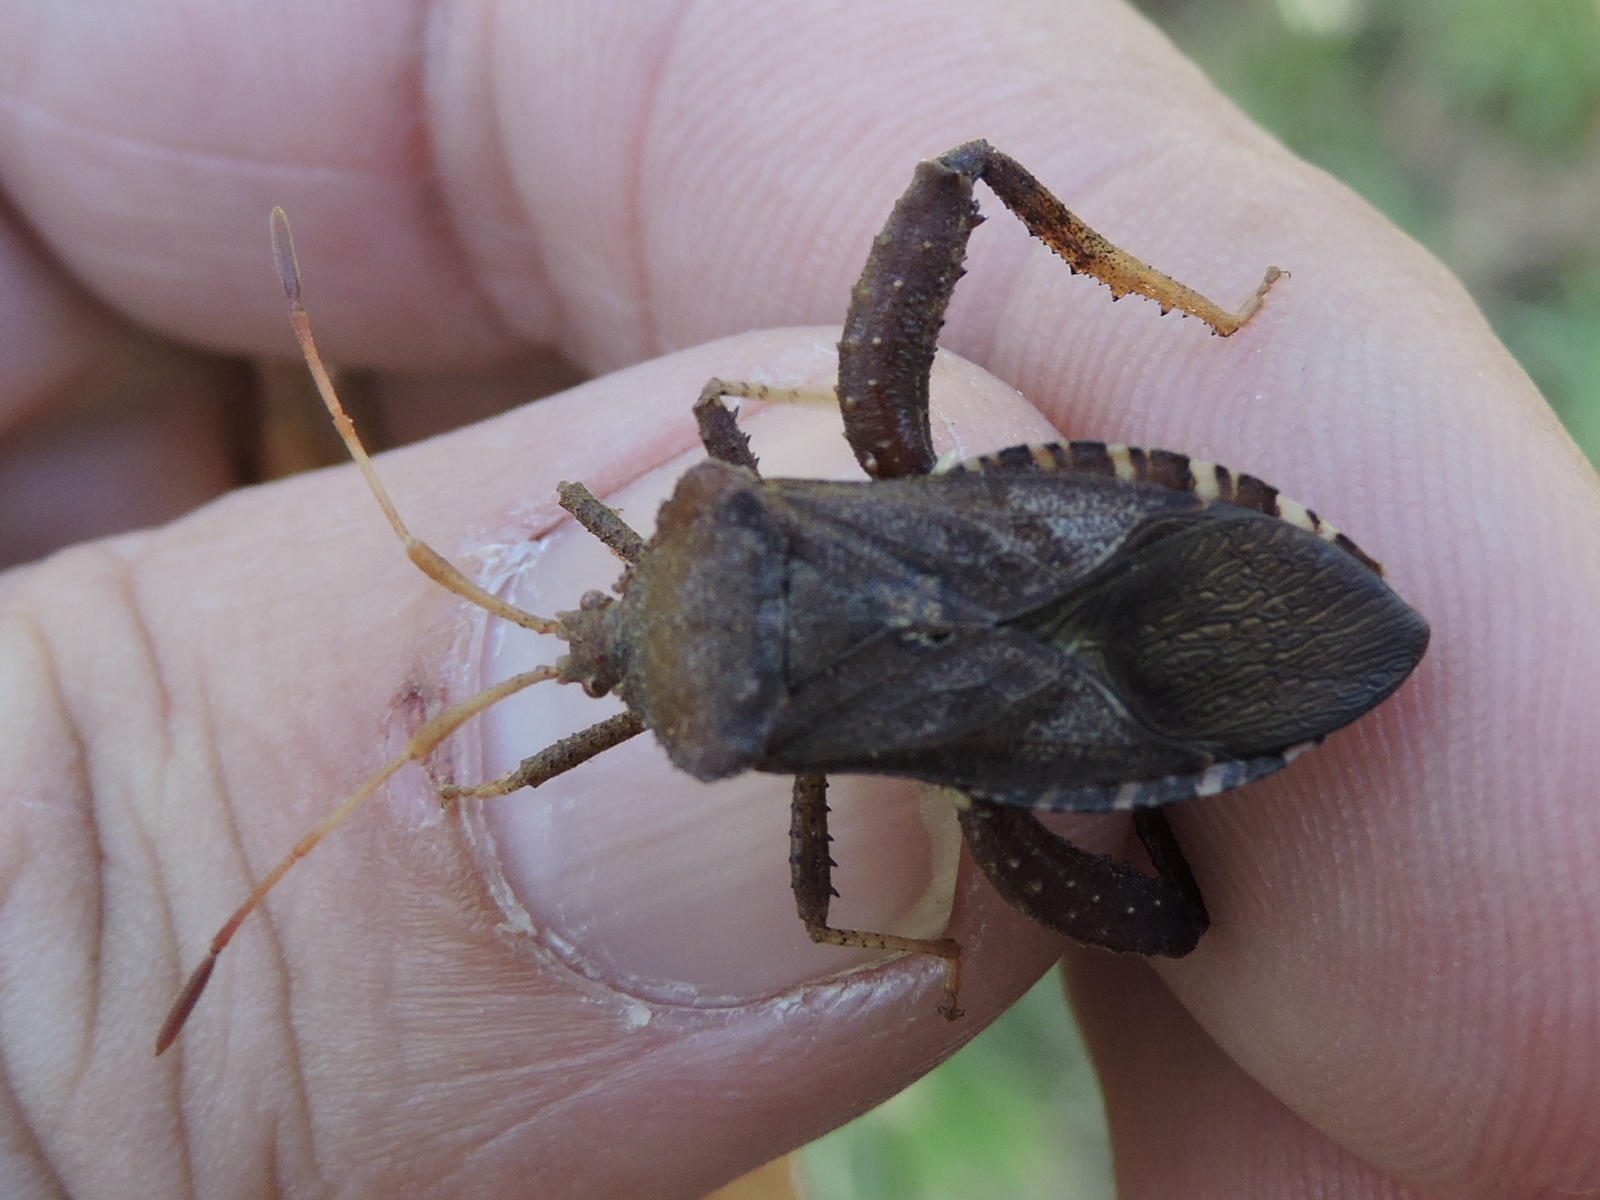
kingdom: Animalia
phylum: Arthropoda
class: Insecta
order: Hemiptera
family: Coreidae
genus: Euthochtha
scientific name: Euthochtha galeator
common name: Helmeted squash bug
